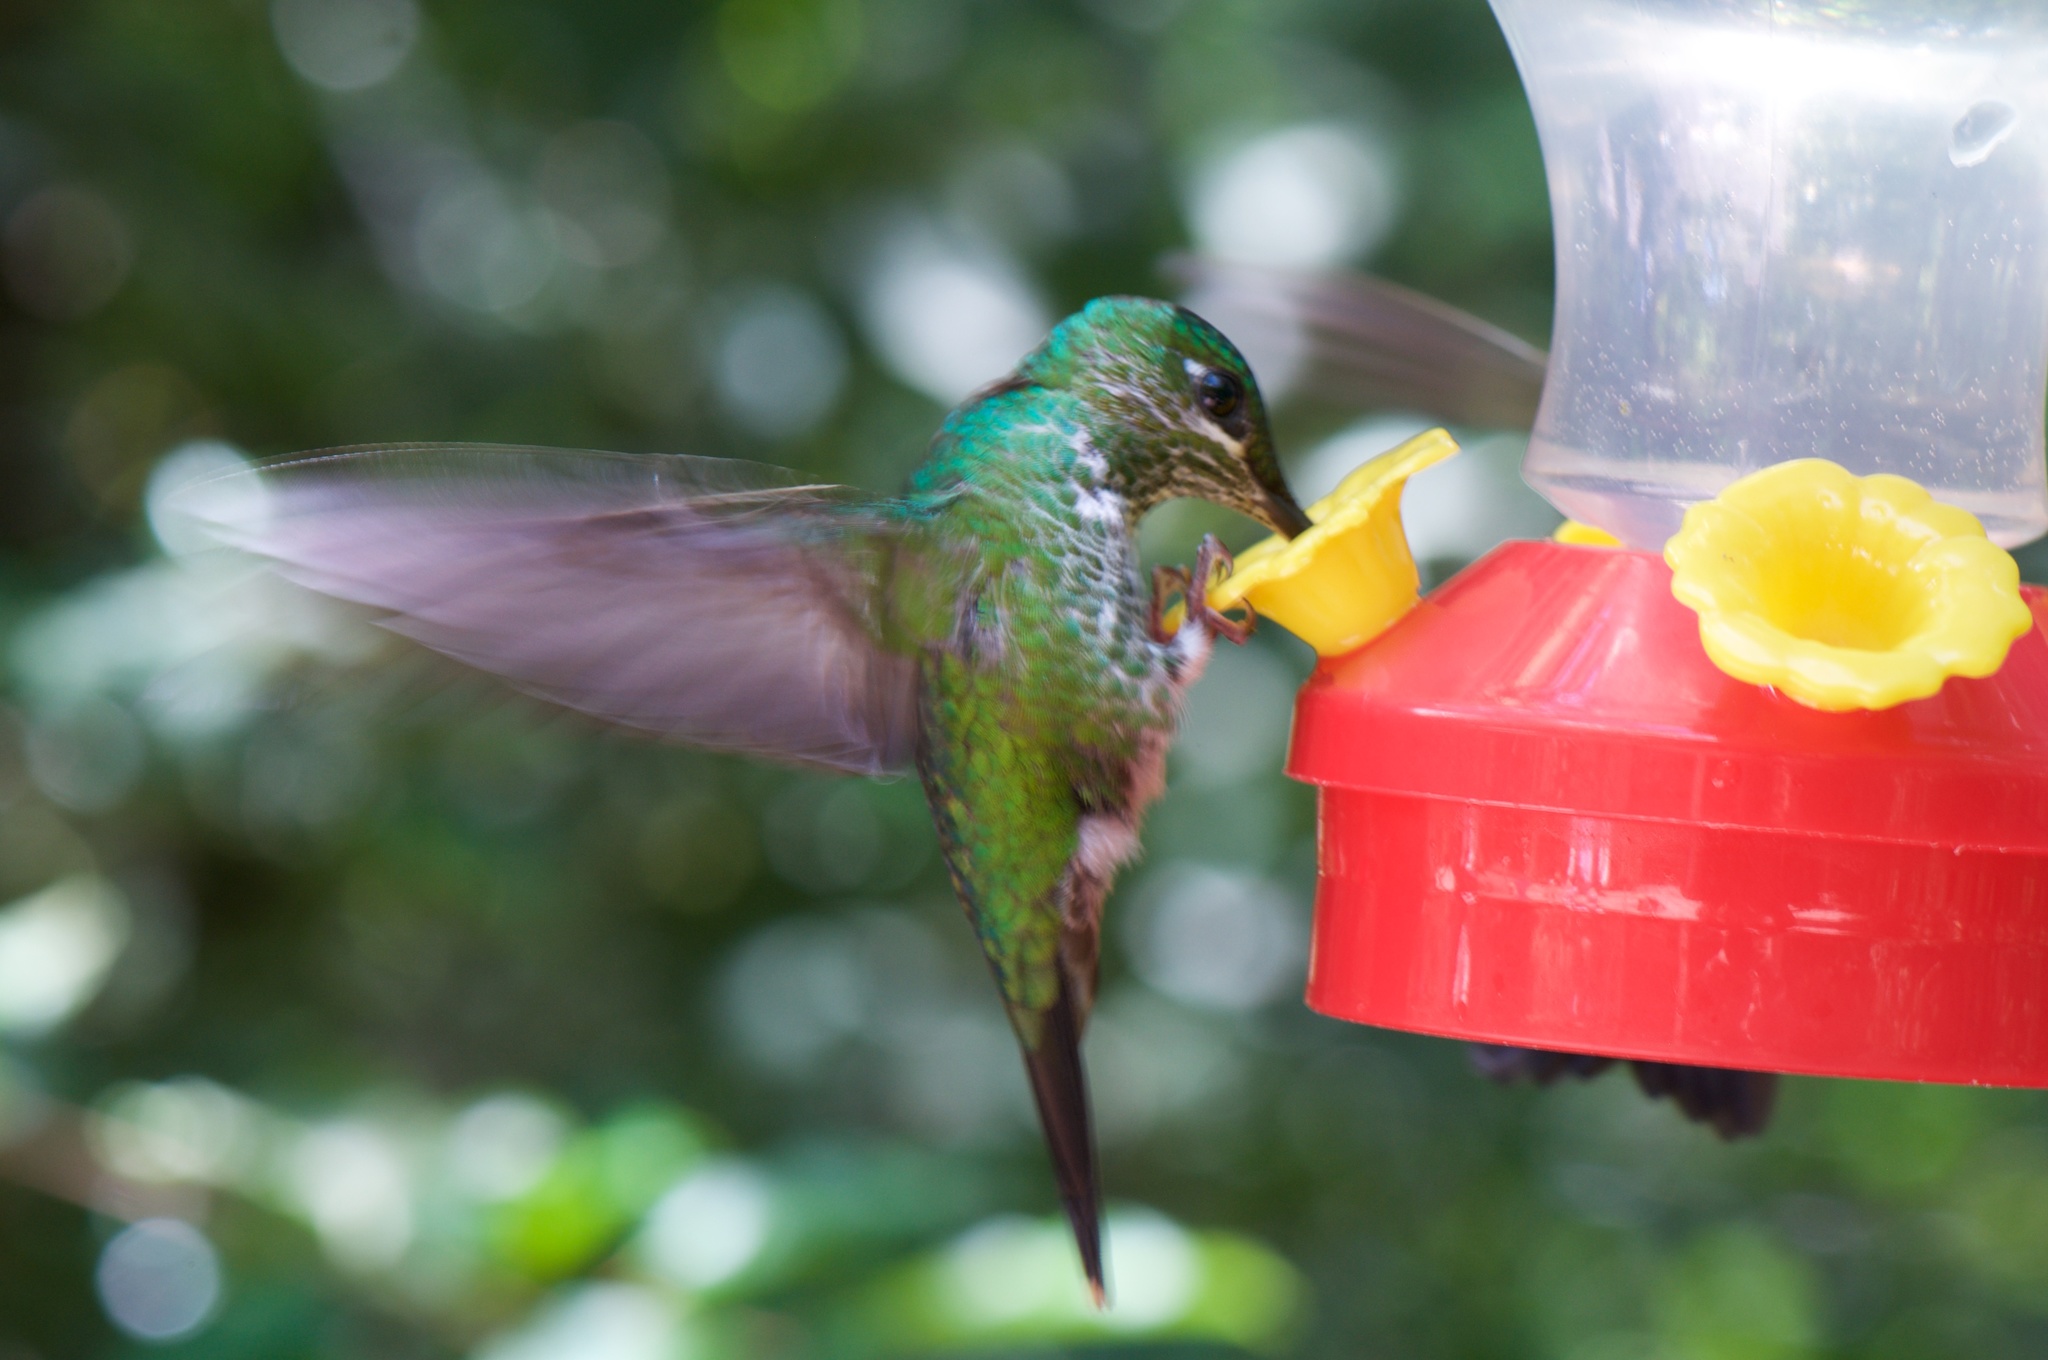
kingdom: Animalia
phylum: Chordata
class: Aves
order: Apodiformes
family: Trochilidae
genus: Heliodoxa
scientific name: Heliodoxa jacula
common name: Green-crowned brilliant
